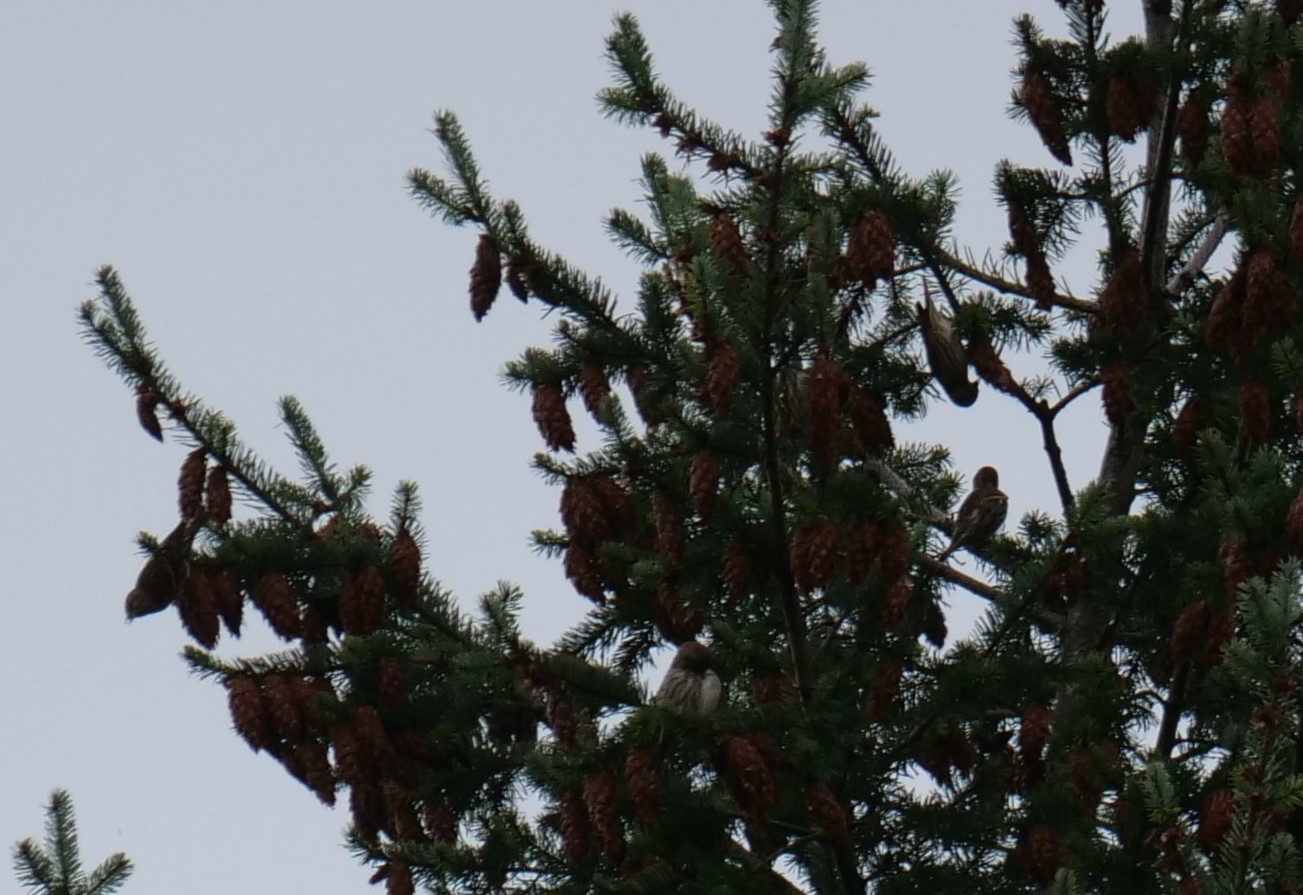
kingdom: Animalia
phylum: Chordata
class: Aves
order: Passeriformes
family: Fringillidae
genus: Spinus
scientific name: Spinus pinus
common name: Pine siskin
